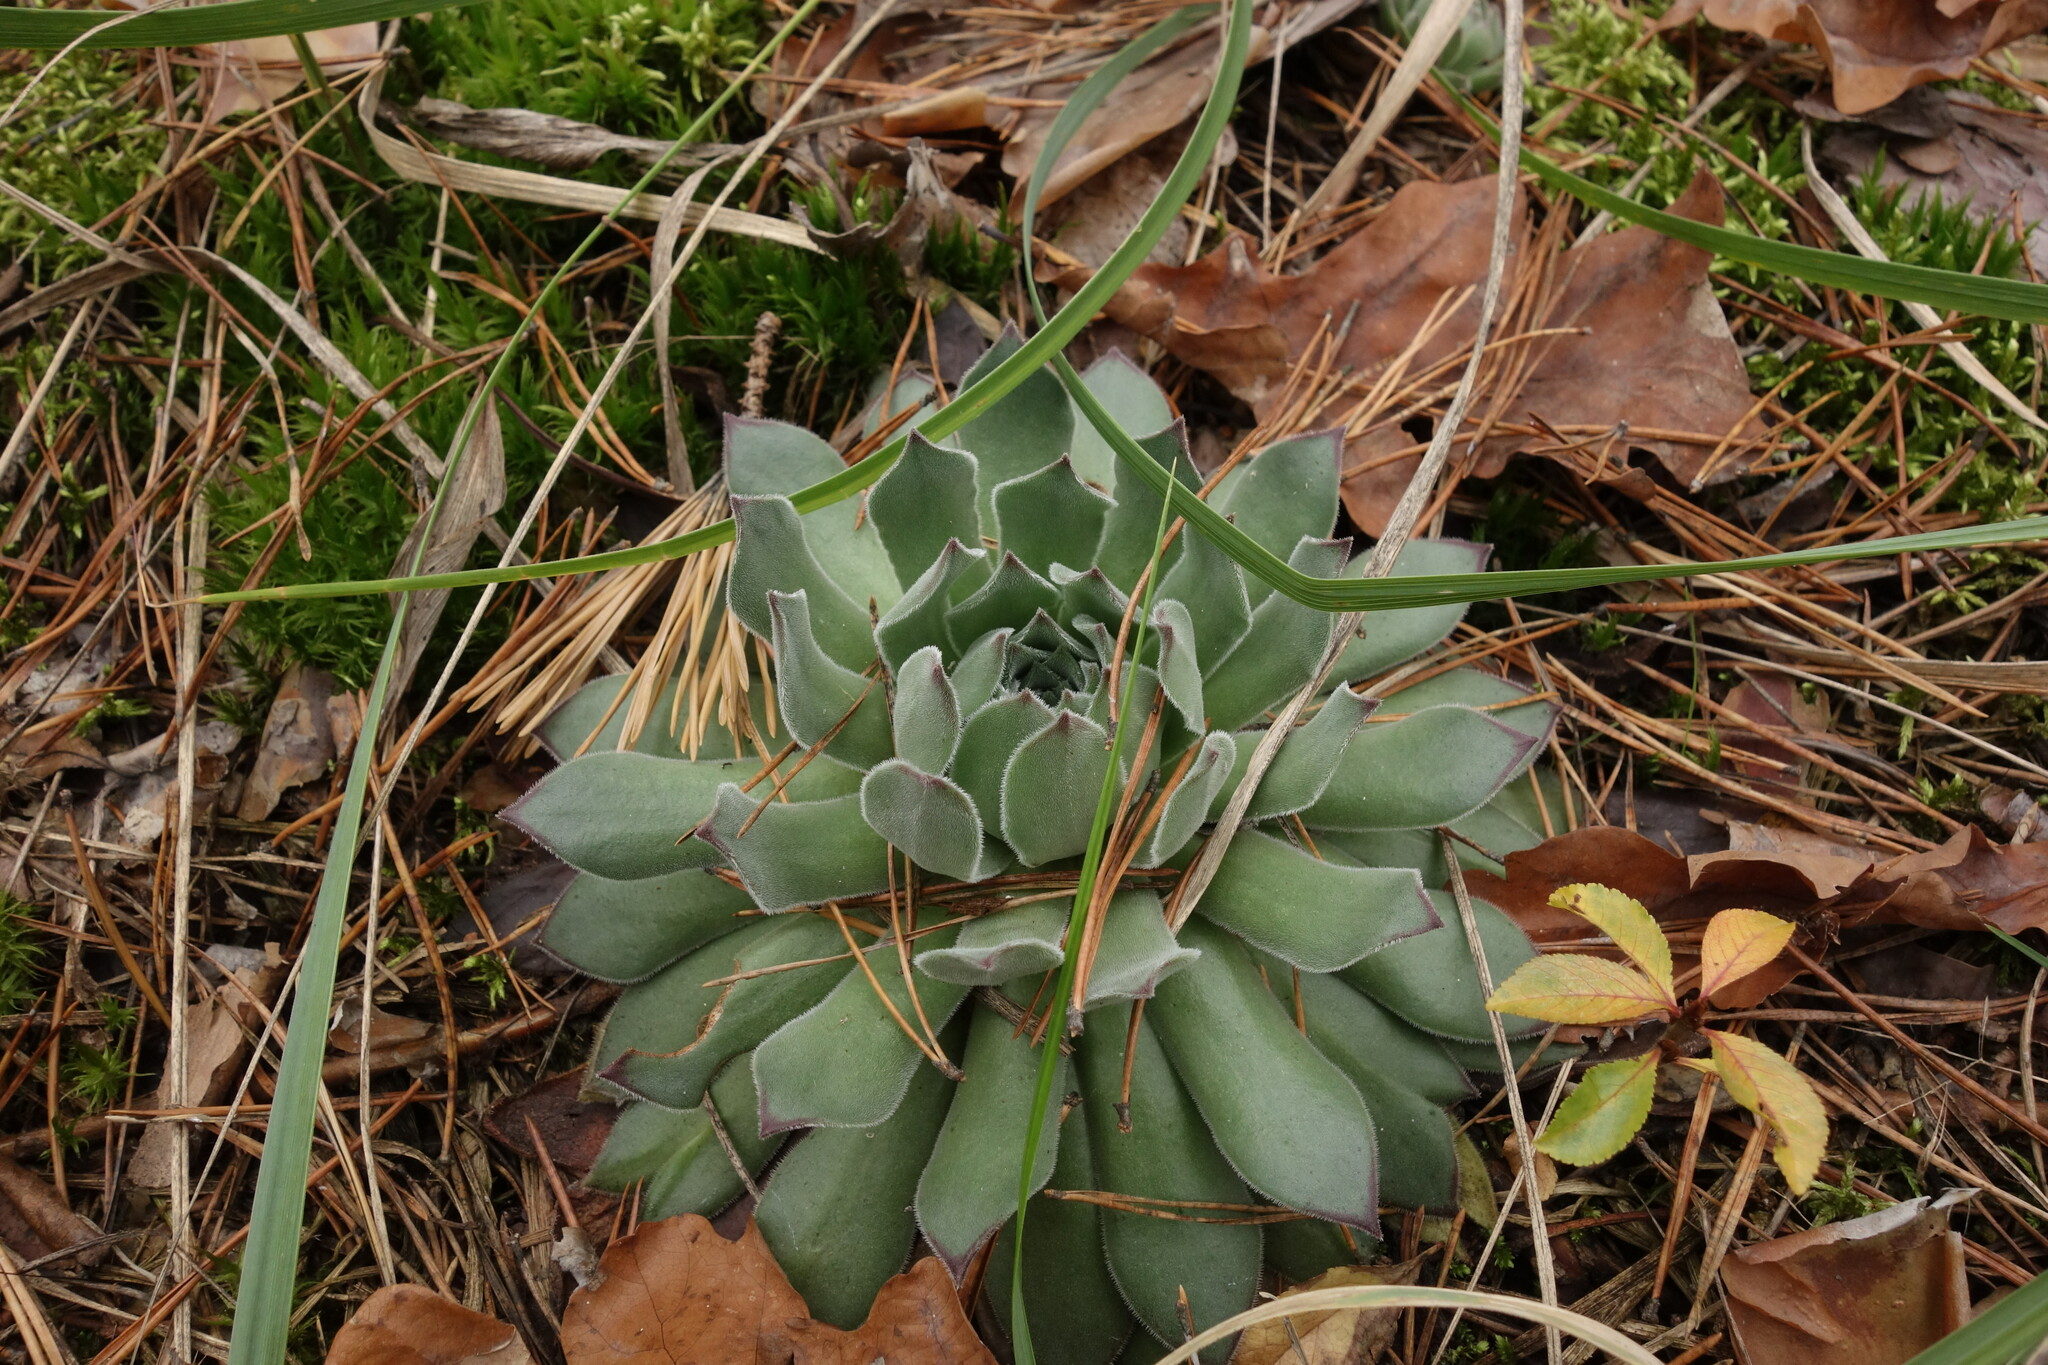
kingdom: Plantae
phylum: Tracheophyta
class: Magnoliopsida
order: Saxifragales
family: Crassulaceae
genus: Sempervivum
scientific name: Sempervivum ruthenicum
